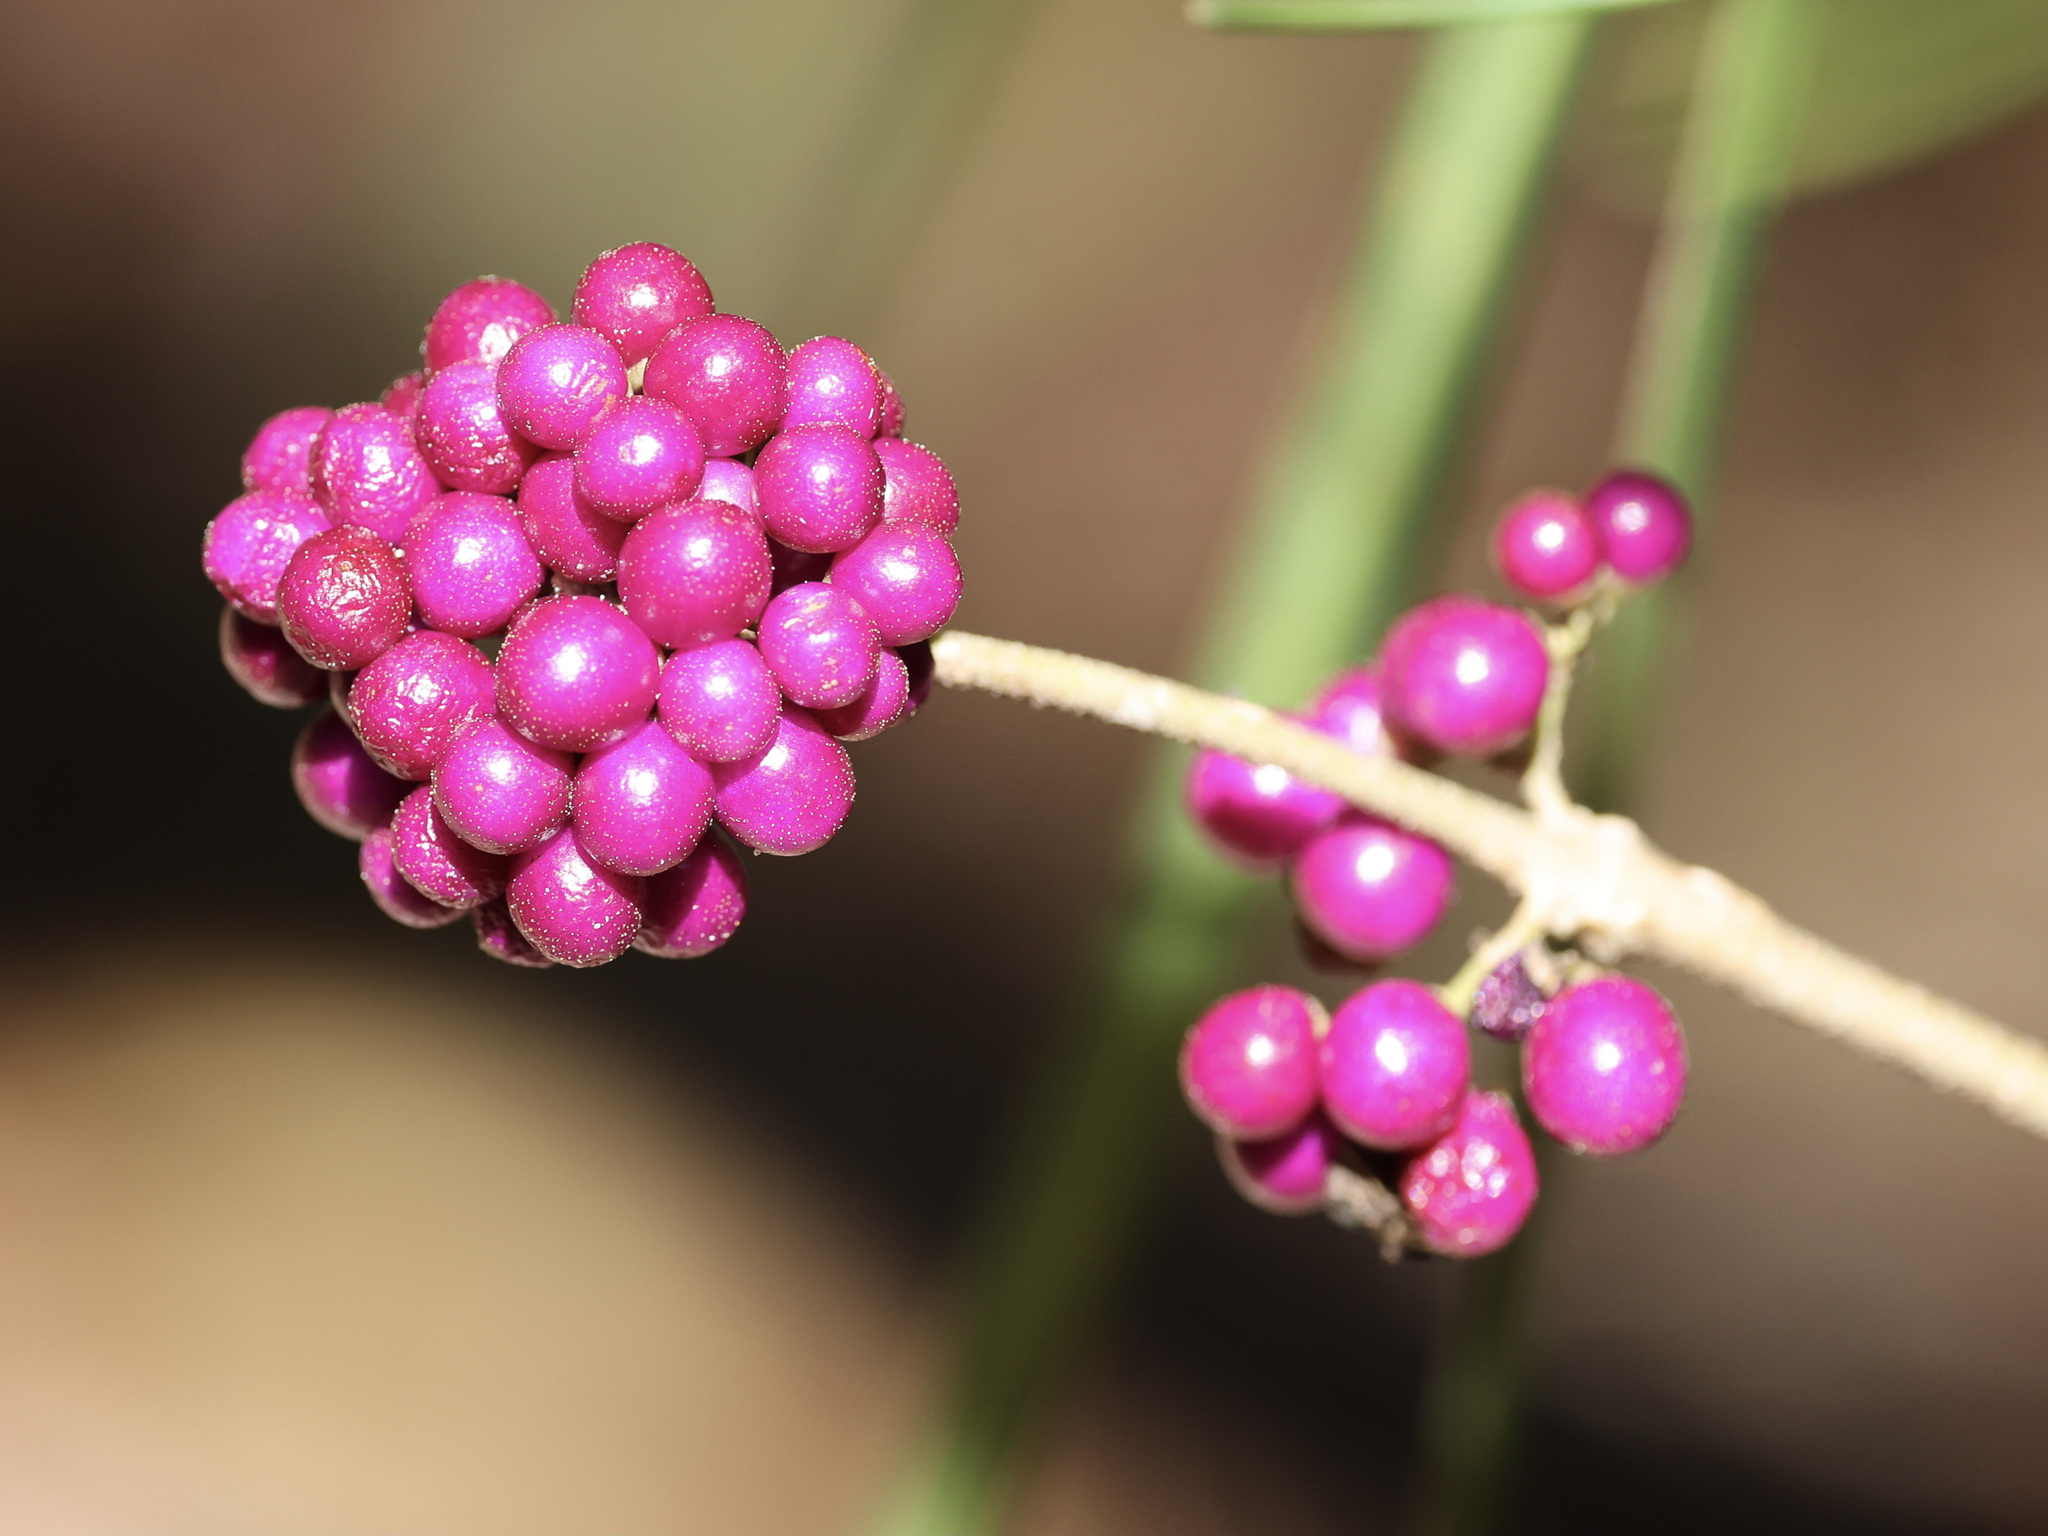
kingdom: Plantae
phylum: Tracheophyta
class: Magnoliopsida
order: Lamiales
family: Lamiaceae
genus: Callicarpa
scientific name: Callicarpa americana
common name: American beautyberry
